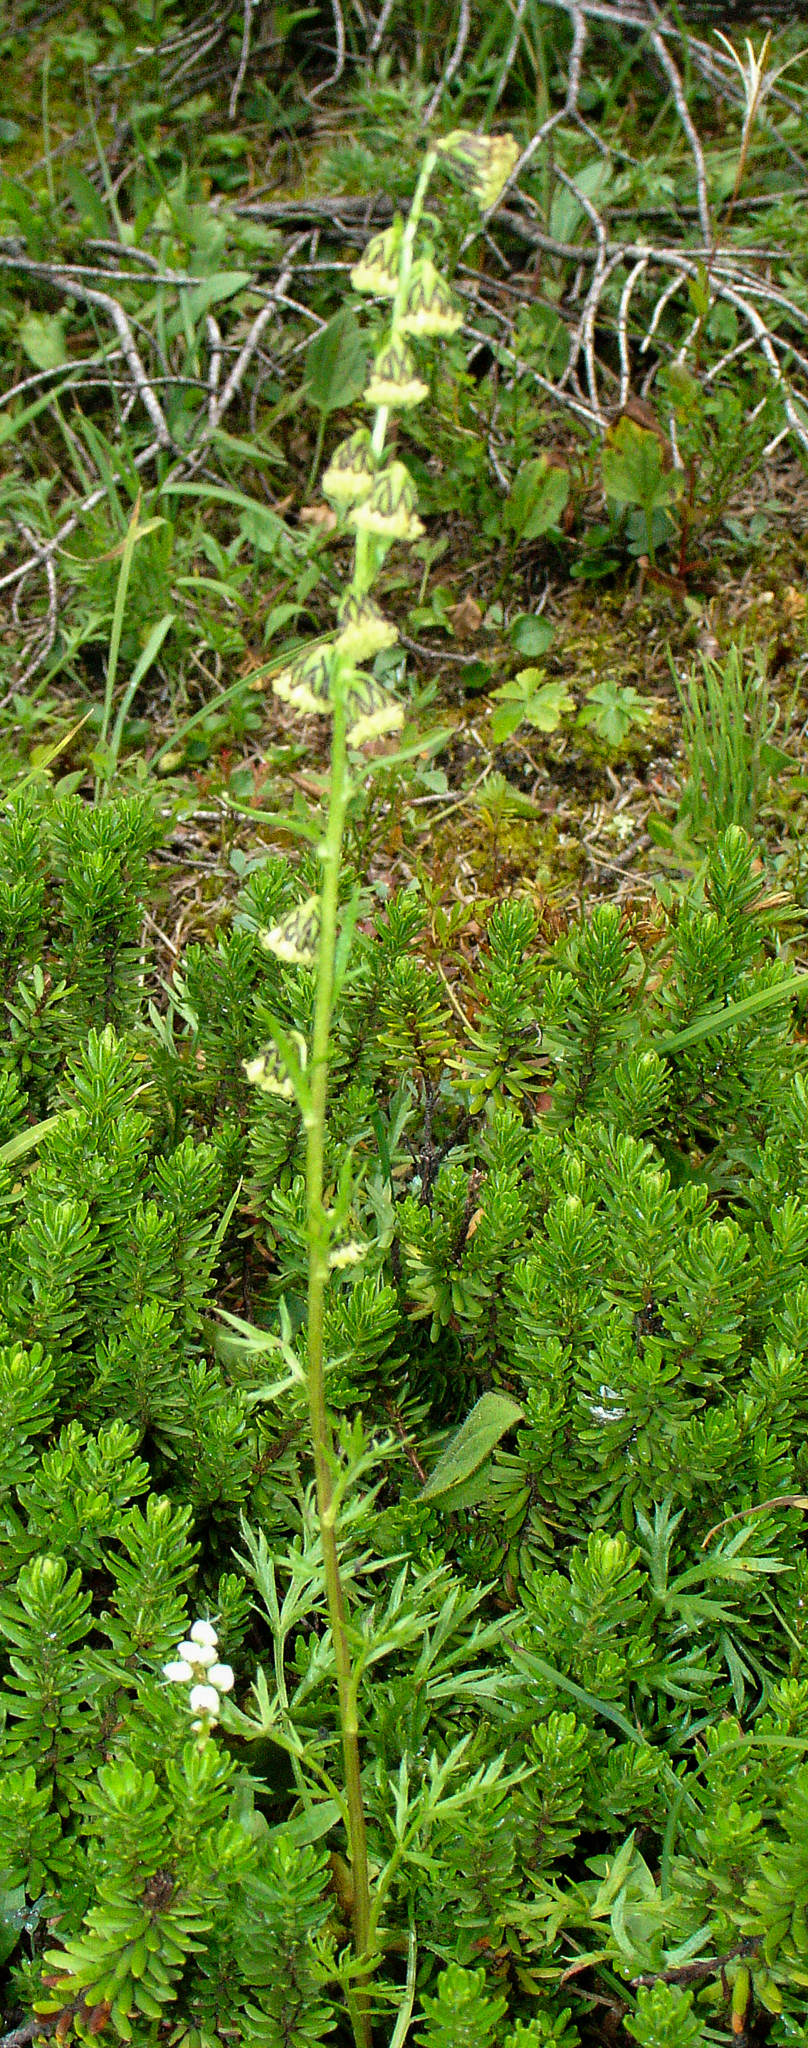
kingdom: Plantae
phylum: Tracheophyta
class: Magnoliopsida
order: Asterales
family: Asteraceae
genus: Artemisia
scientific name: Artemisia norvegica
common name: Norwegian mugwort
